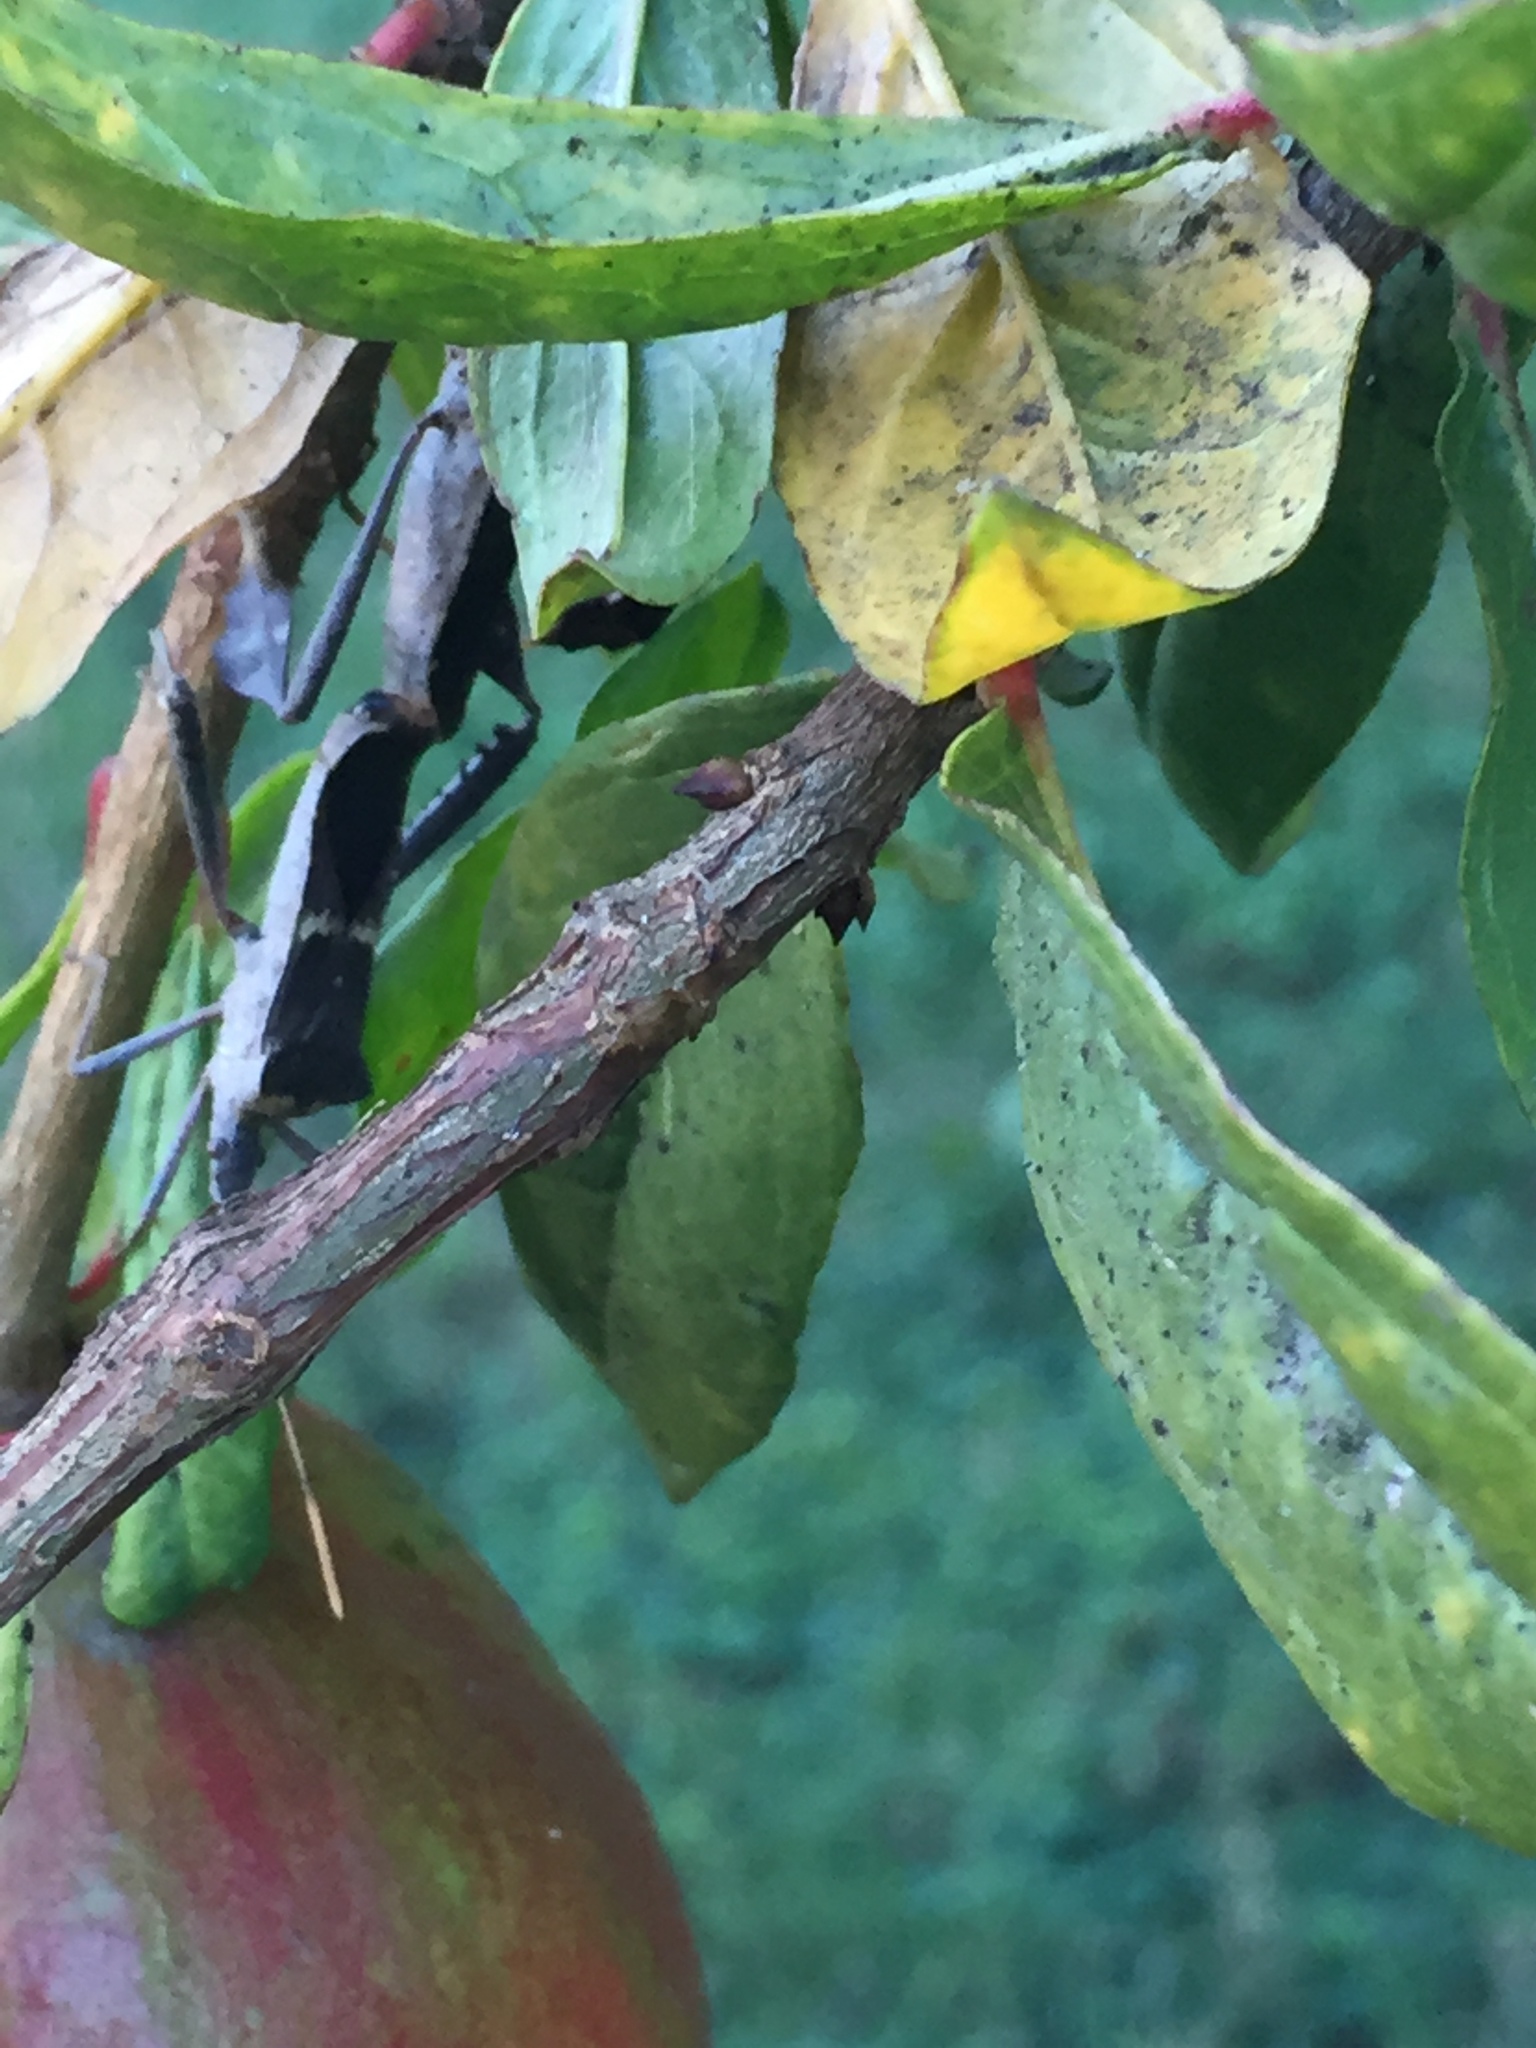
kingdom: Animalia
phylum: Arthropoda
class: Insecta
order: Hemiptera
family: Coreidae
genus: Leptoglossus
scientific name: Leptoglossus zonatus
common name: Large-legged bug
